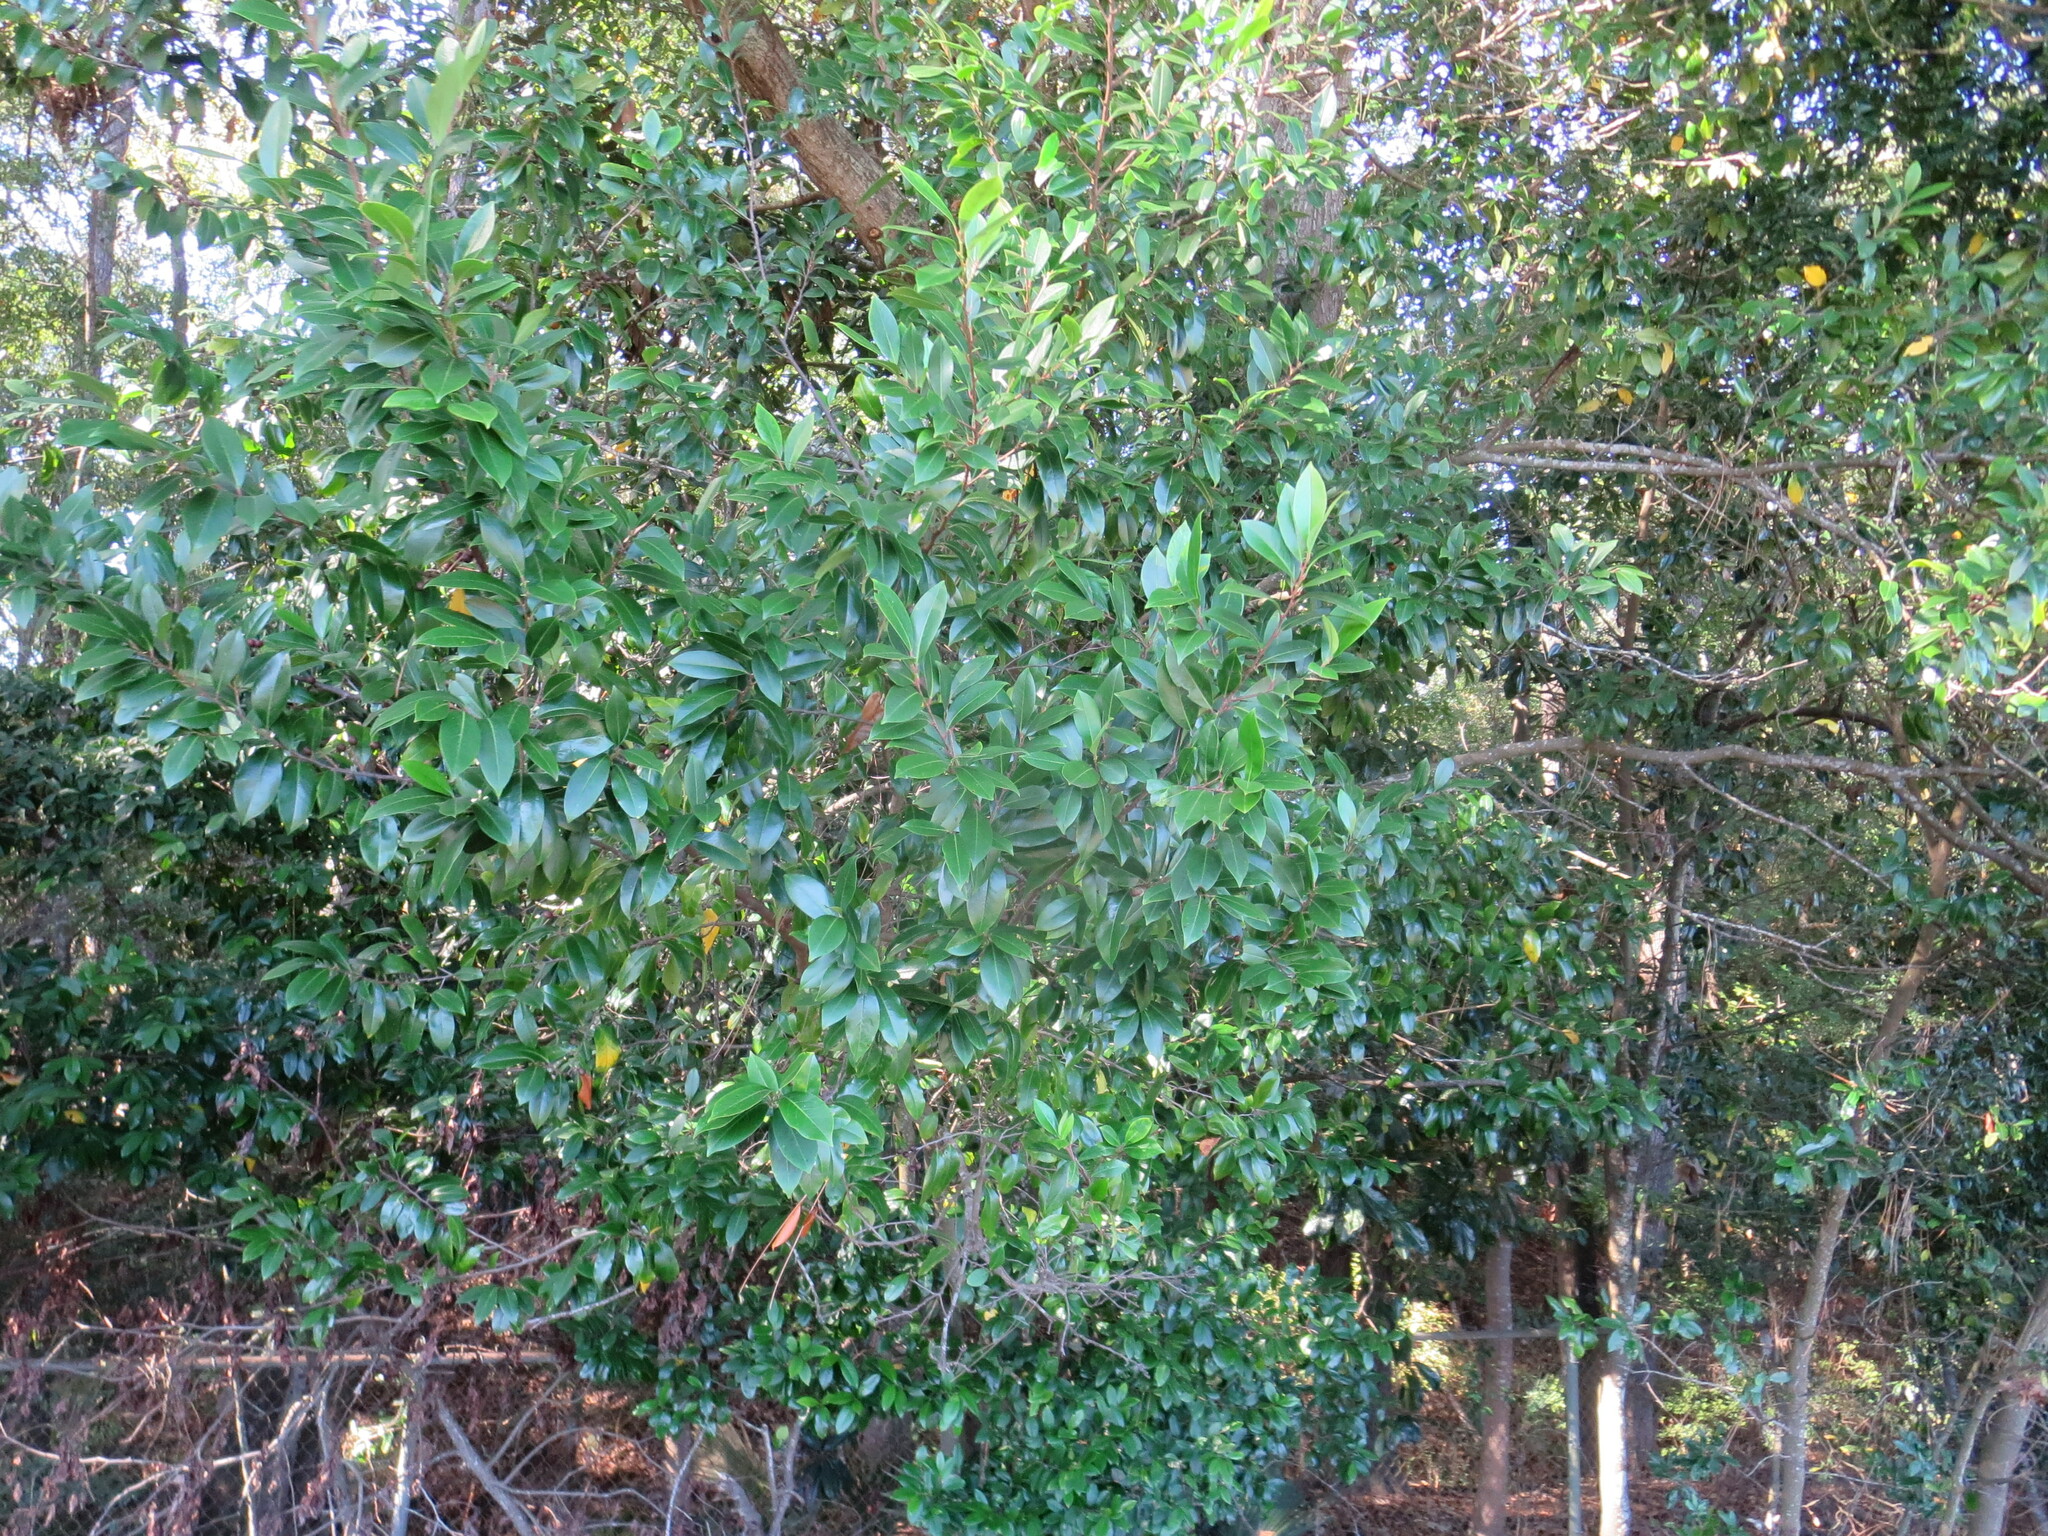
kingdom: Plantae
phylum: Tracheophyta
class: Magnoliopsida
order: Rosales
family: Rosaceae
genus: Prunus
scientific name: Prunus caroliniana
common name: Carolina laurel cherry
